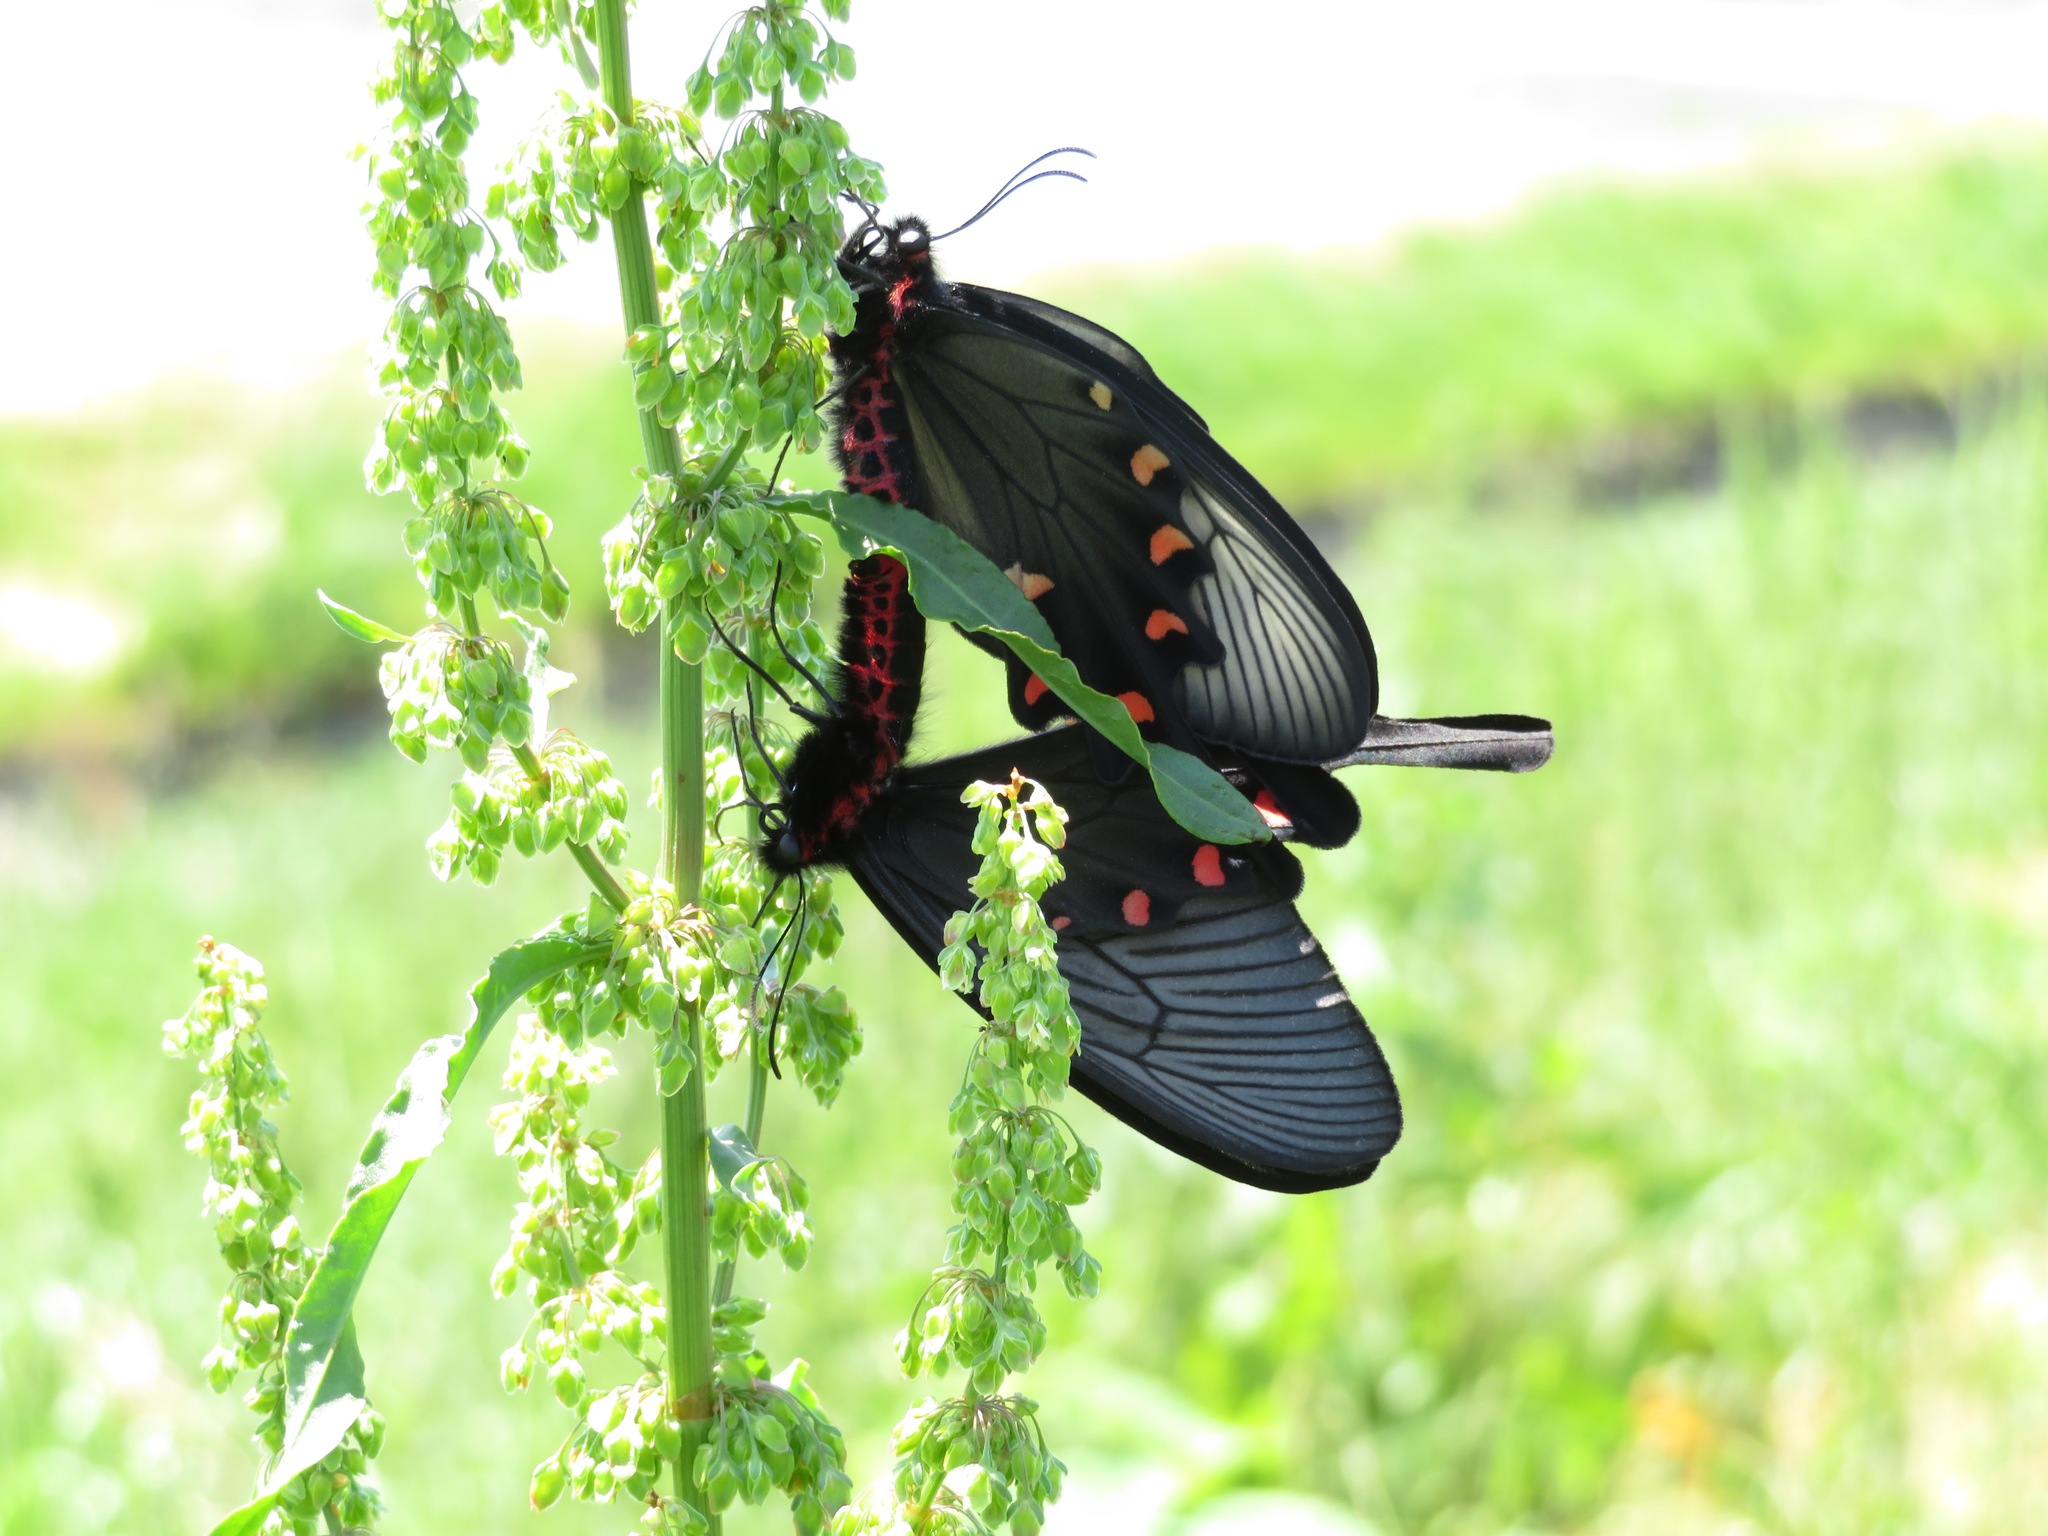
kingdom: Animalia
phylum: Arthropoda
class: Insecta
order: Lepidoptera
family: Papilionidae
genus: Byasa
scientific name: Byasa alcinous
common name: Chinese windmill
